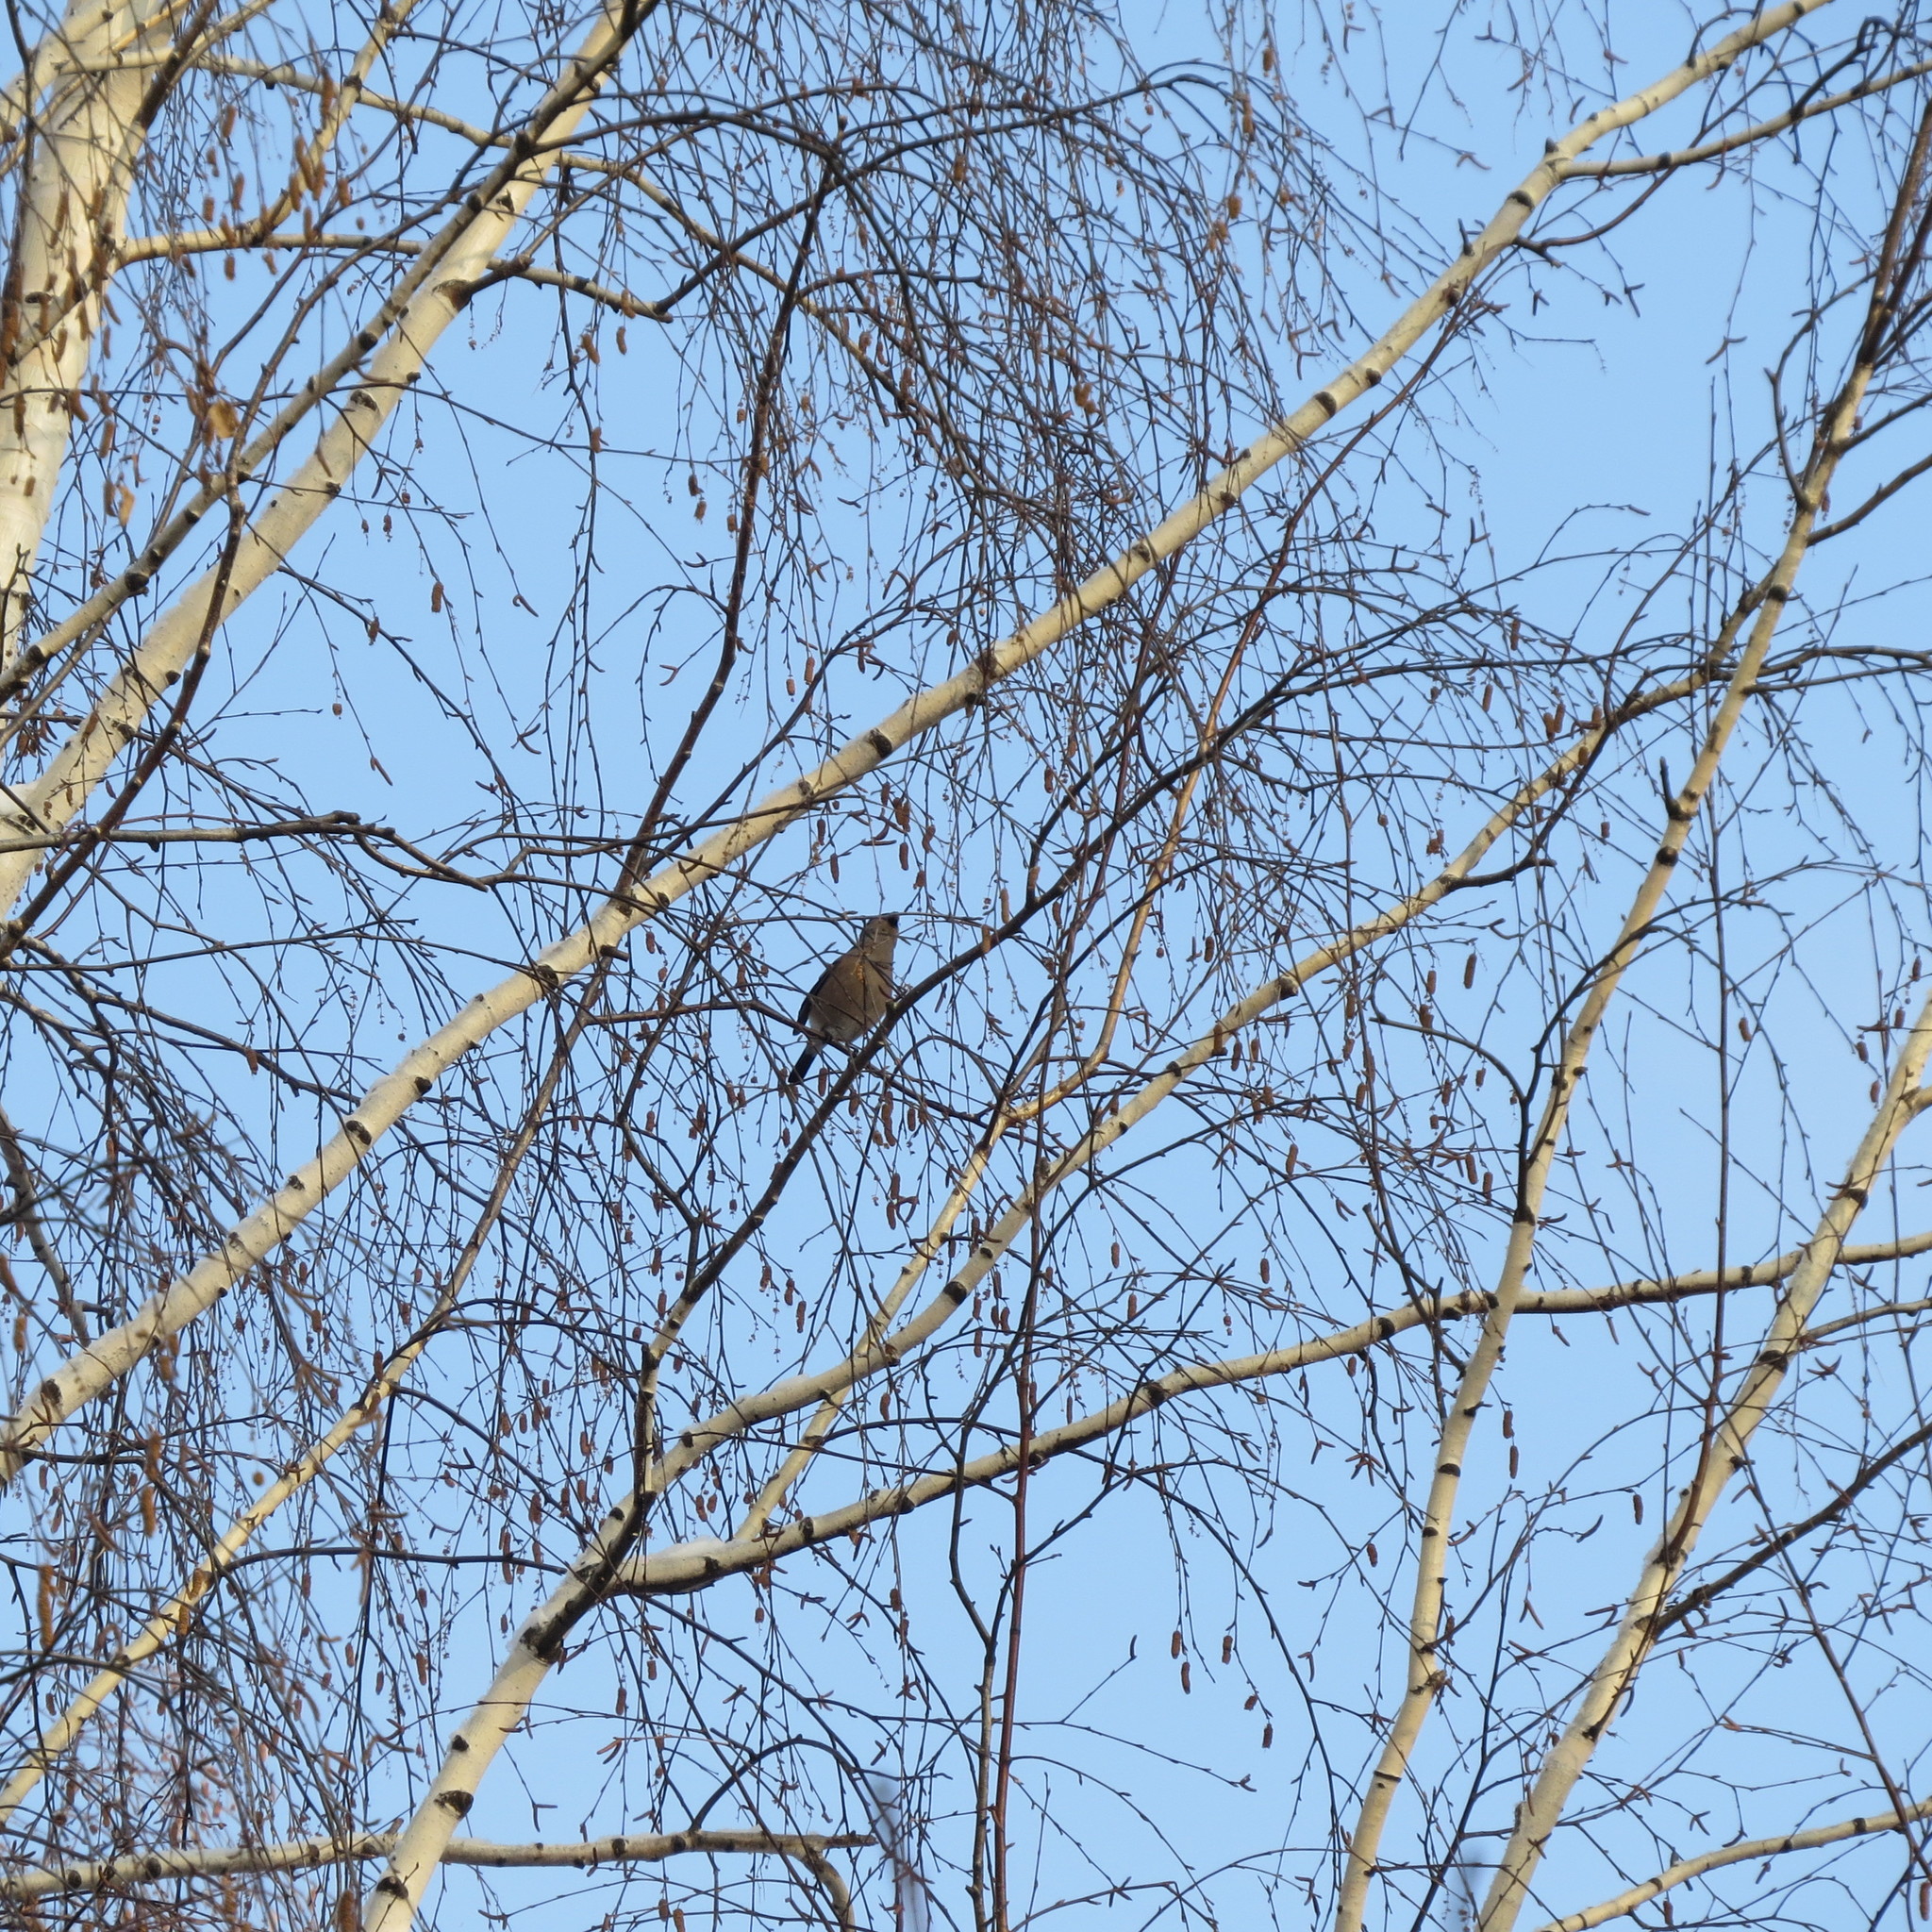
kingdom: Animalia
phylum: Chordata
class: Aves
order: Passeriformes
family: Fringillidae
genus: Pyrrhula
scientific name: Pyrrhula pyrrhula
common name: Eurasian bullfinch
